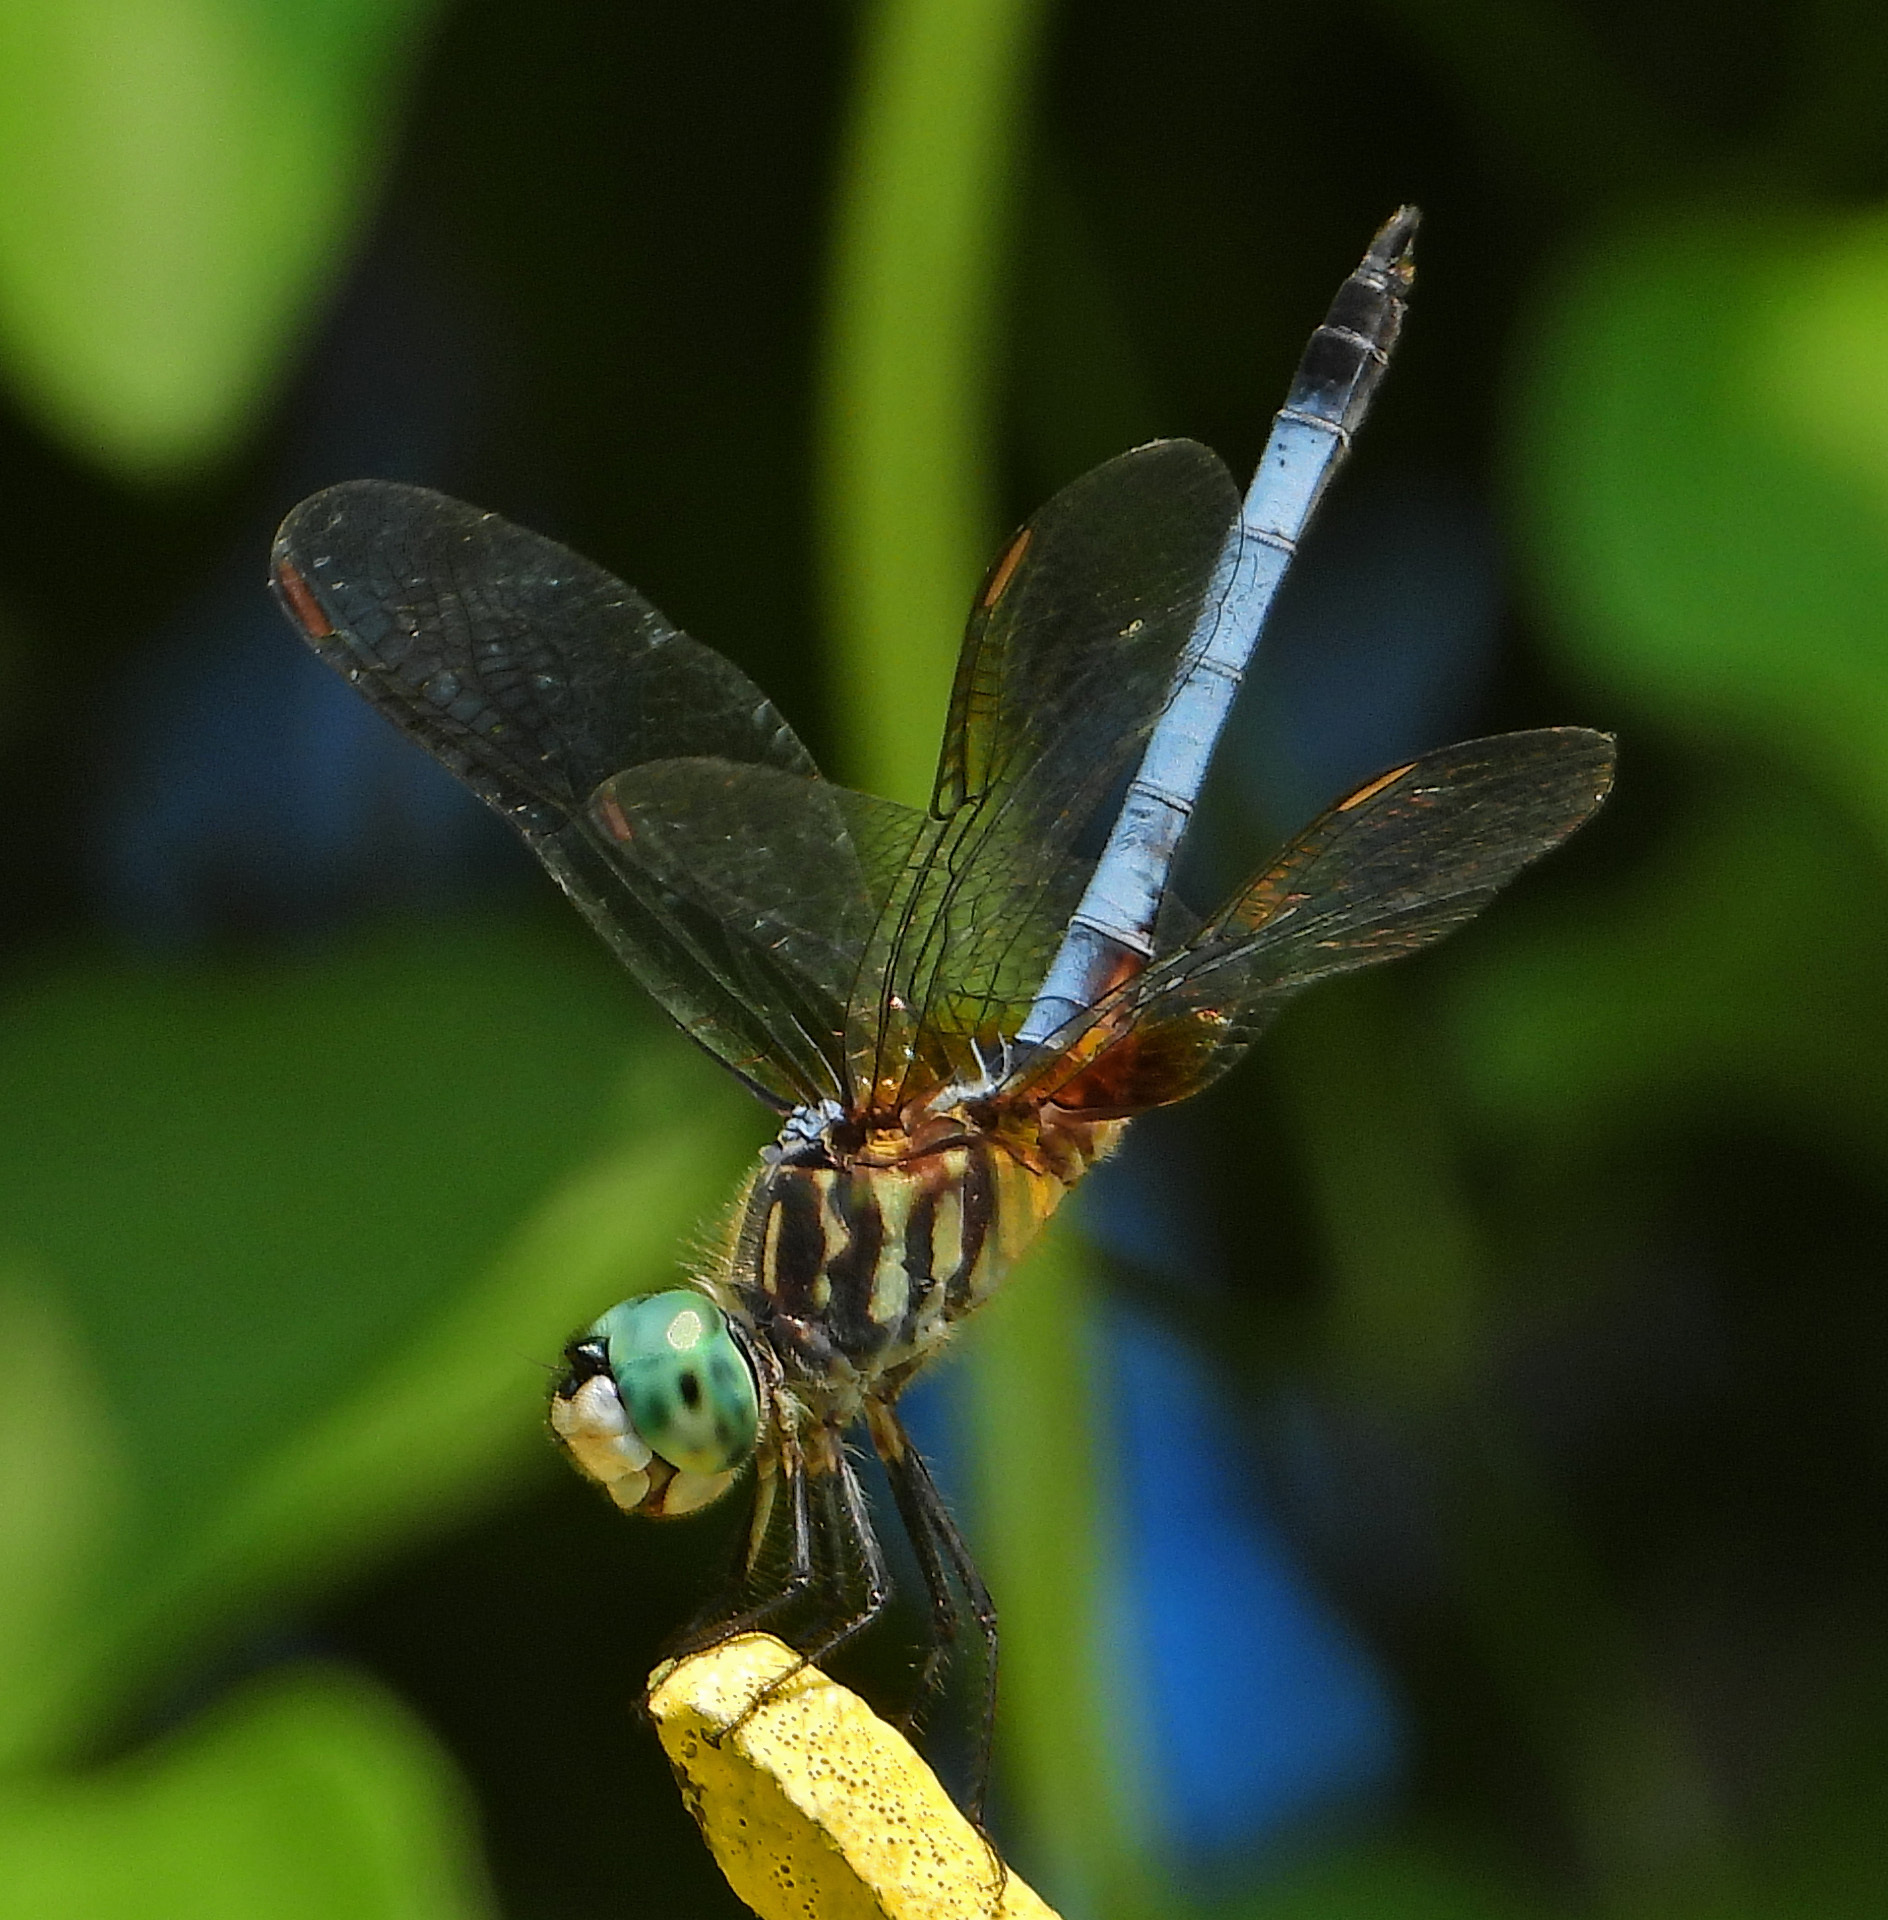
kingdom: Animalia
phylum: Arthropoda
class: Insecta
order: Odonata
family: Libellulidae
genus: Pachydiplax
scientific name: Pachydiplax longipennis
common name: Blue dasher
